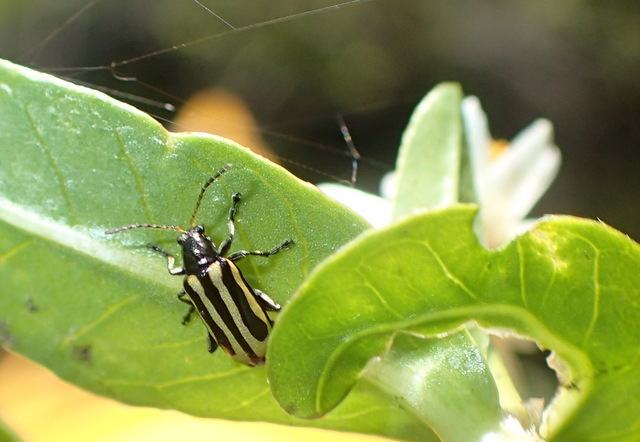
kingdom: Animalia
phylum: Arthropoda
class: Insecta
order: Coleoptera
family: Chrysomelidae
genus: Agasicles
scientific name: Agasicles hygrophila
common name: Alligatorweed flea beetle
